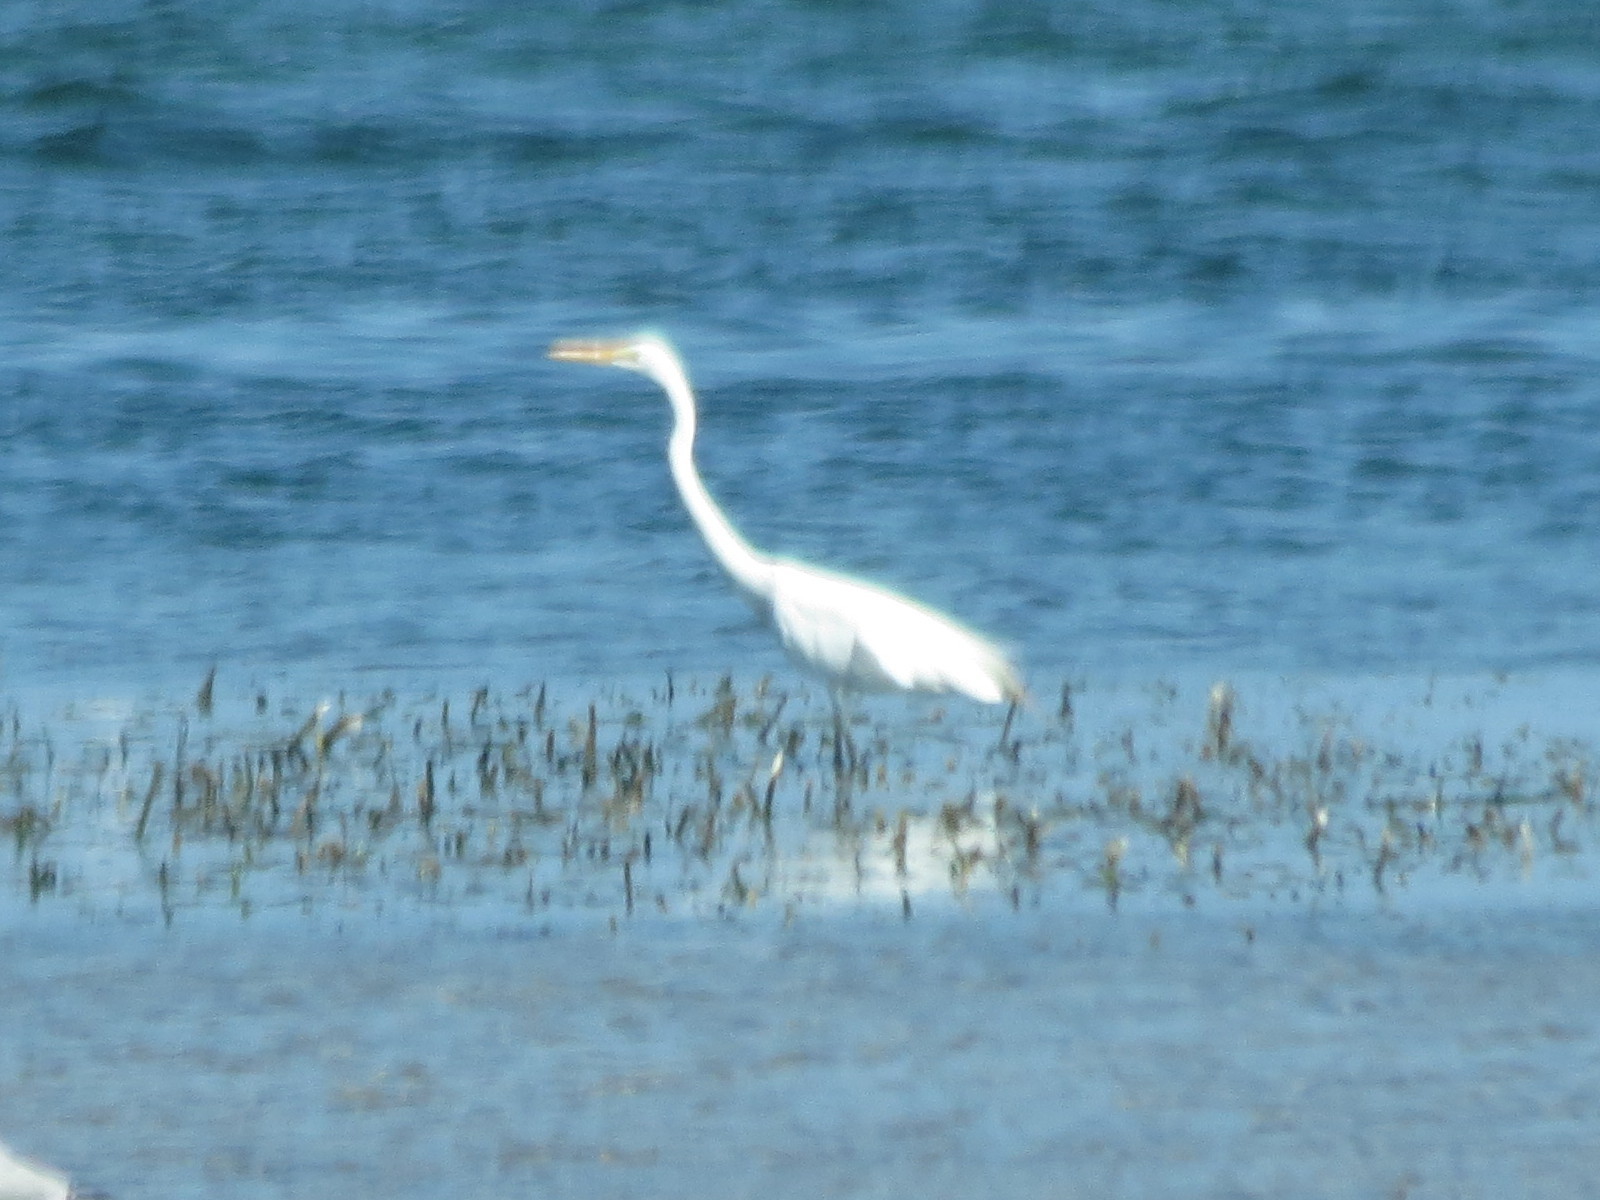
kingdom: Animalia
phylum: Chordata
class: Aves
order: Pelecaniformes
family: Ardeidae
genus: Ardea
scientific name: Ardea alba
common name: Great egret
